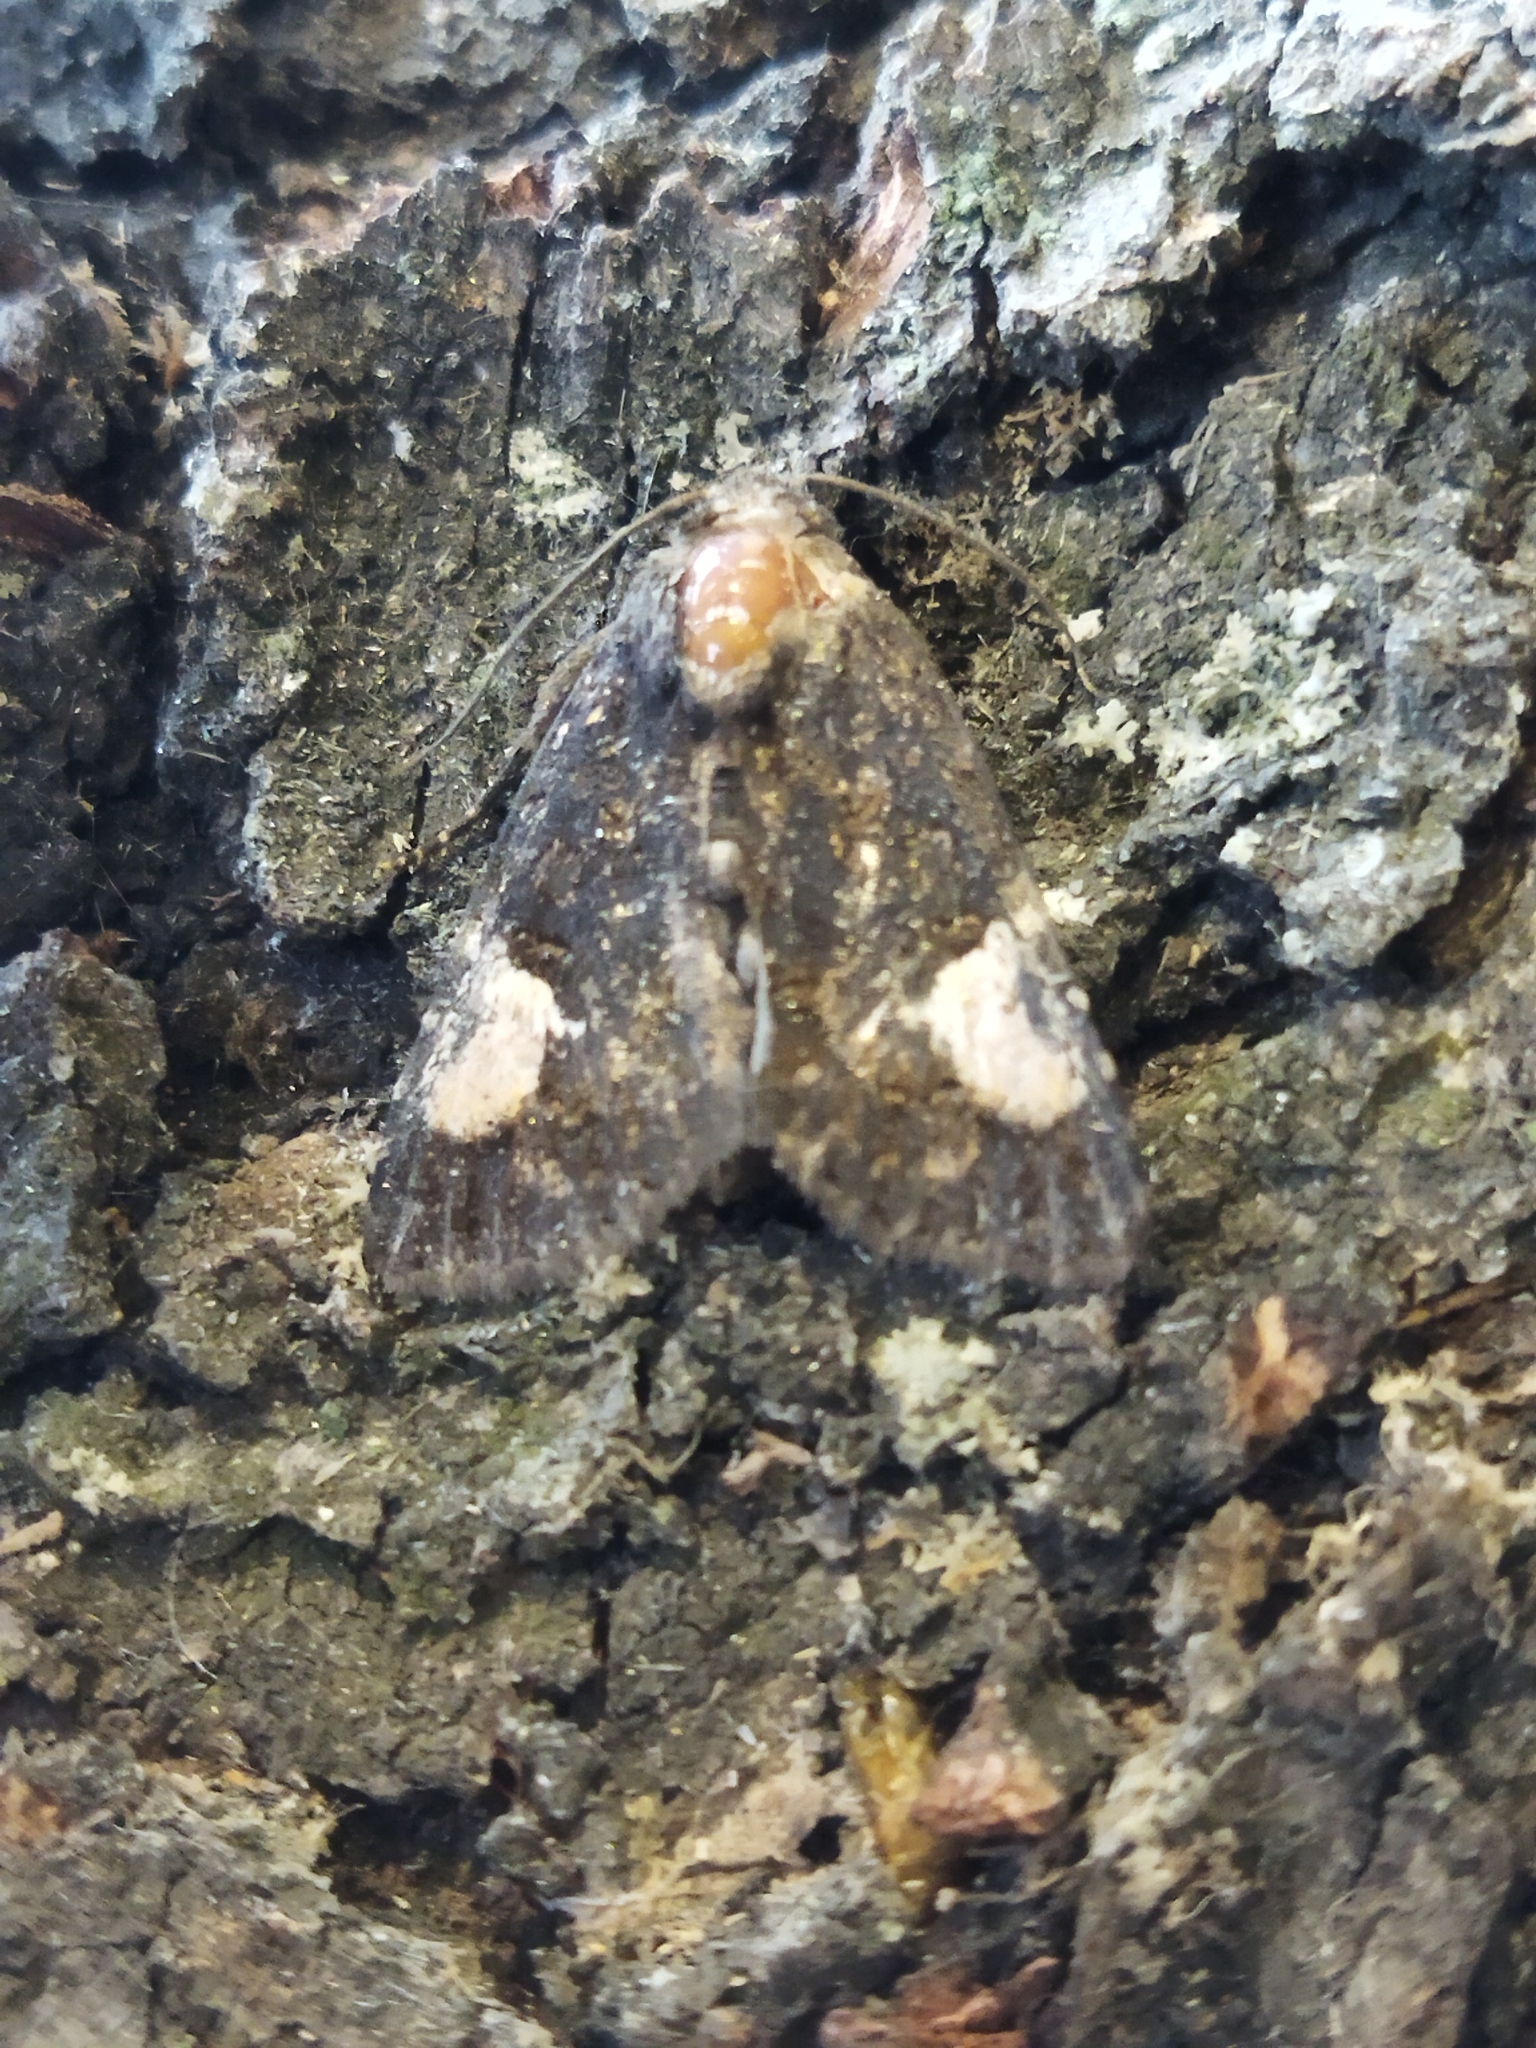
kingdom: Animalia
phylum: Arthropoda
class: Insecta
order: Lepidoptera
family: Noctuidae
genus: Aedia
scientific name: Aedia funesta
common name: The druid
